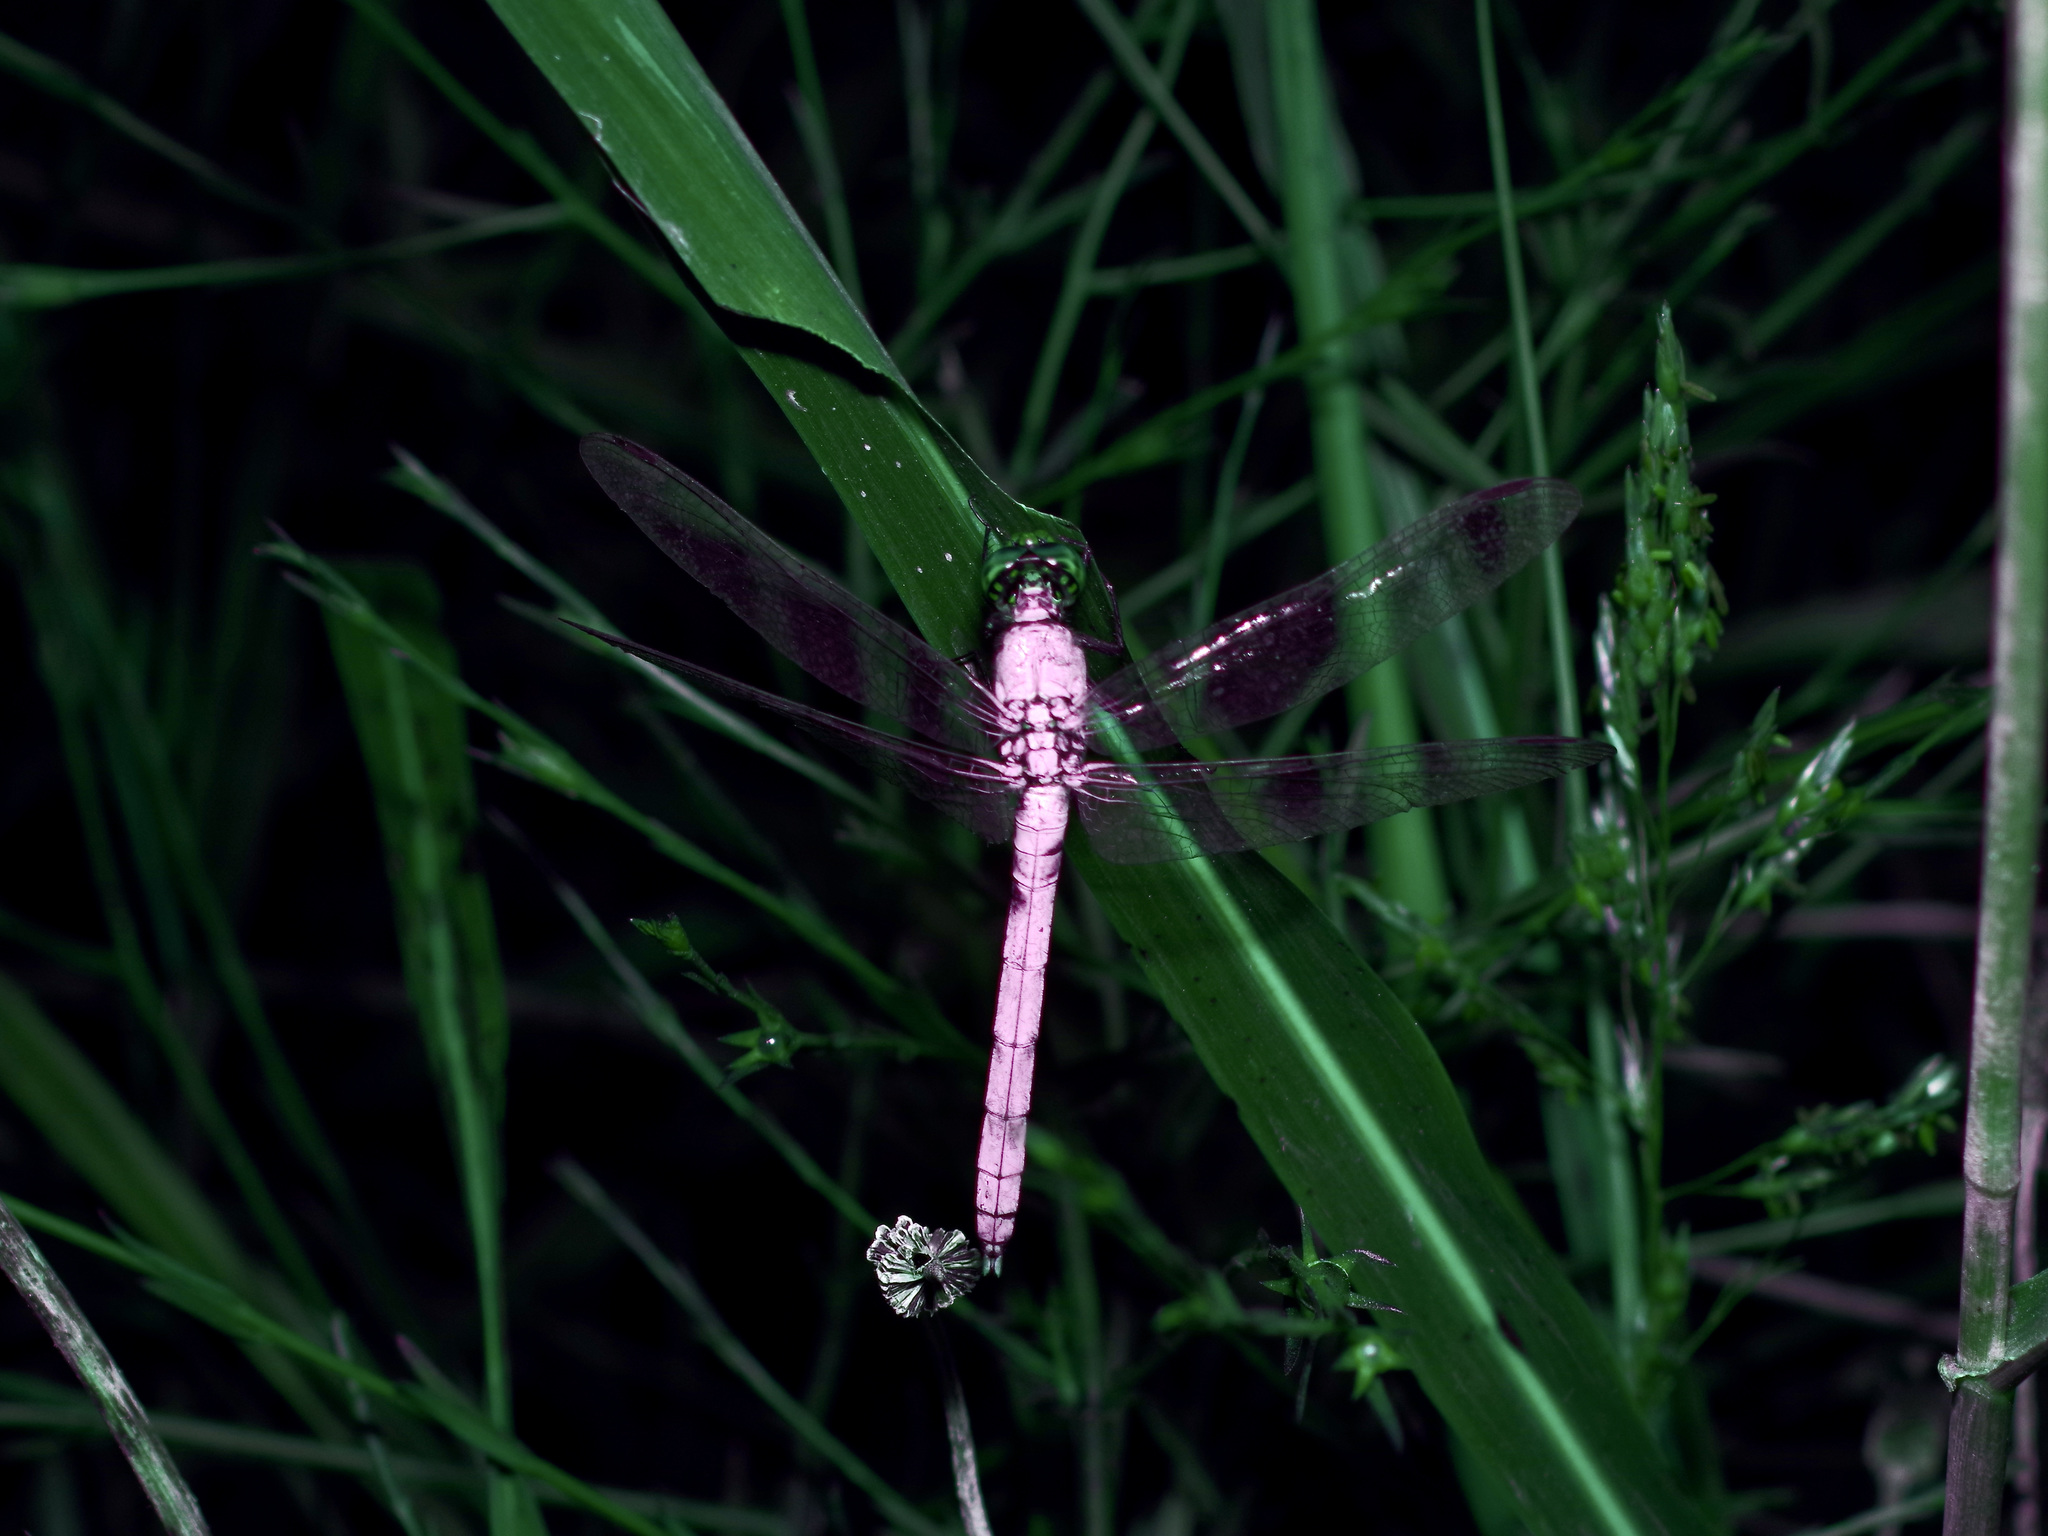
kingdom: Animalia
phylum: Arthropoda
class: Insecta
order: Odonata
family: Libellulidae
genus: Erythemis
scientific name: Erythemis simplicicollis
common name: Eastern pondhawk
